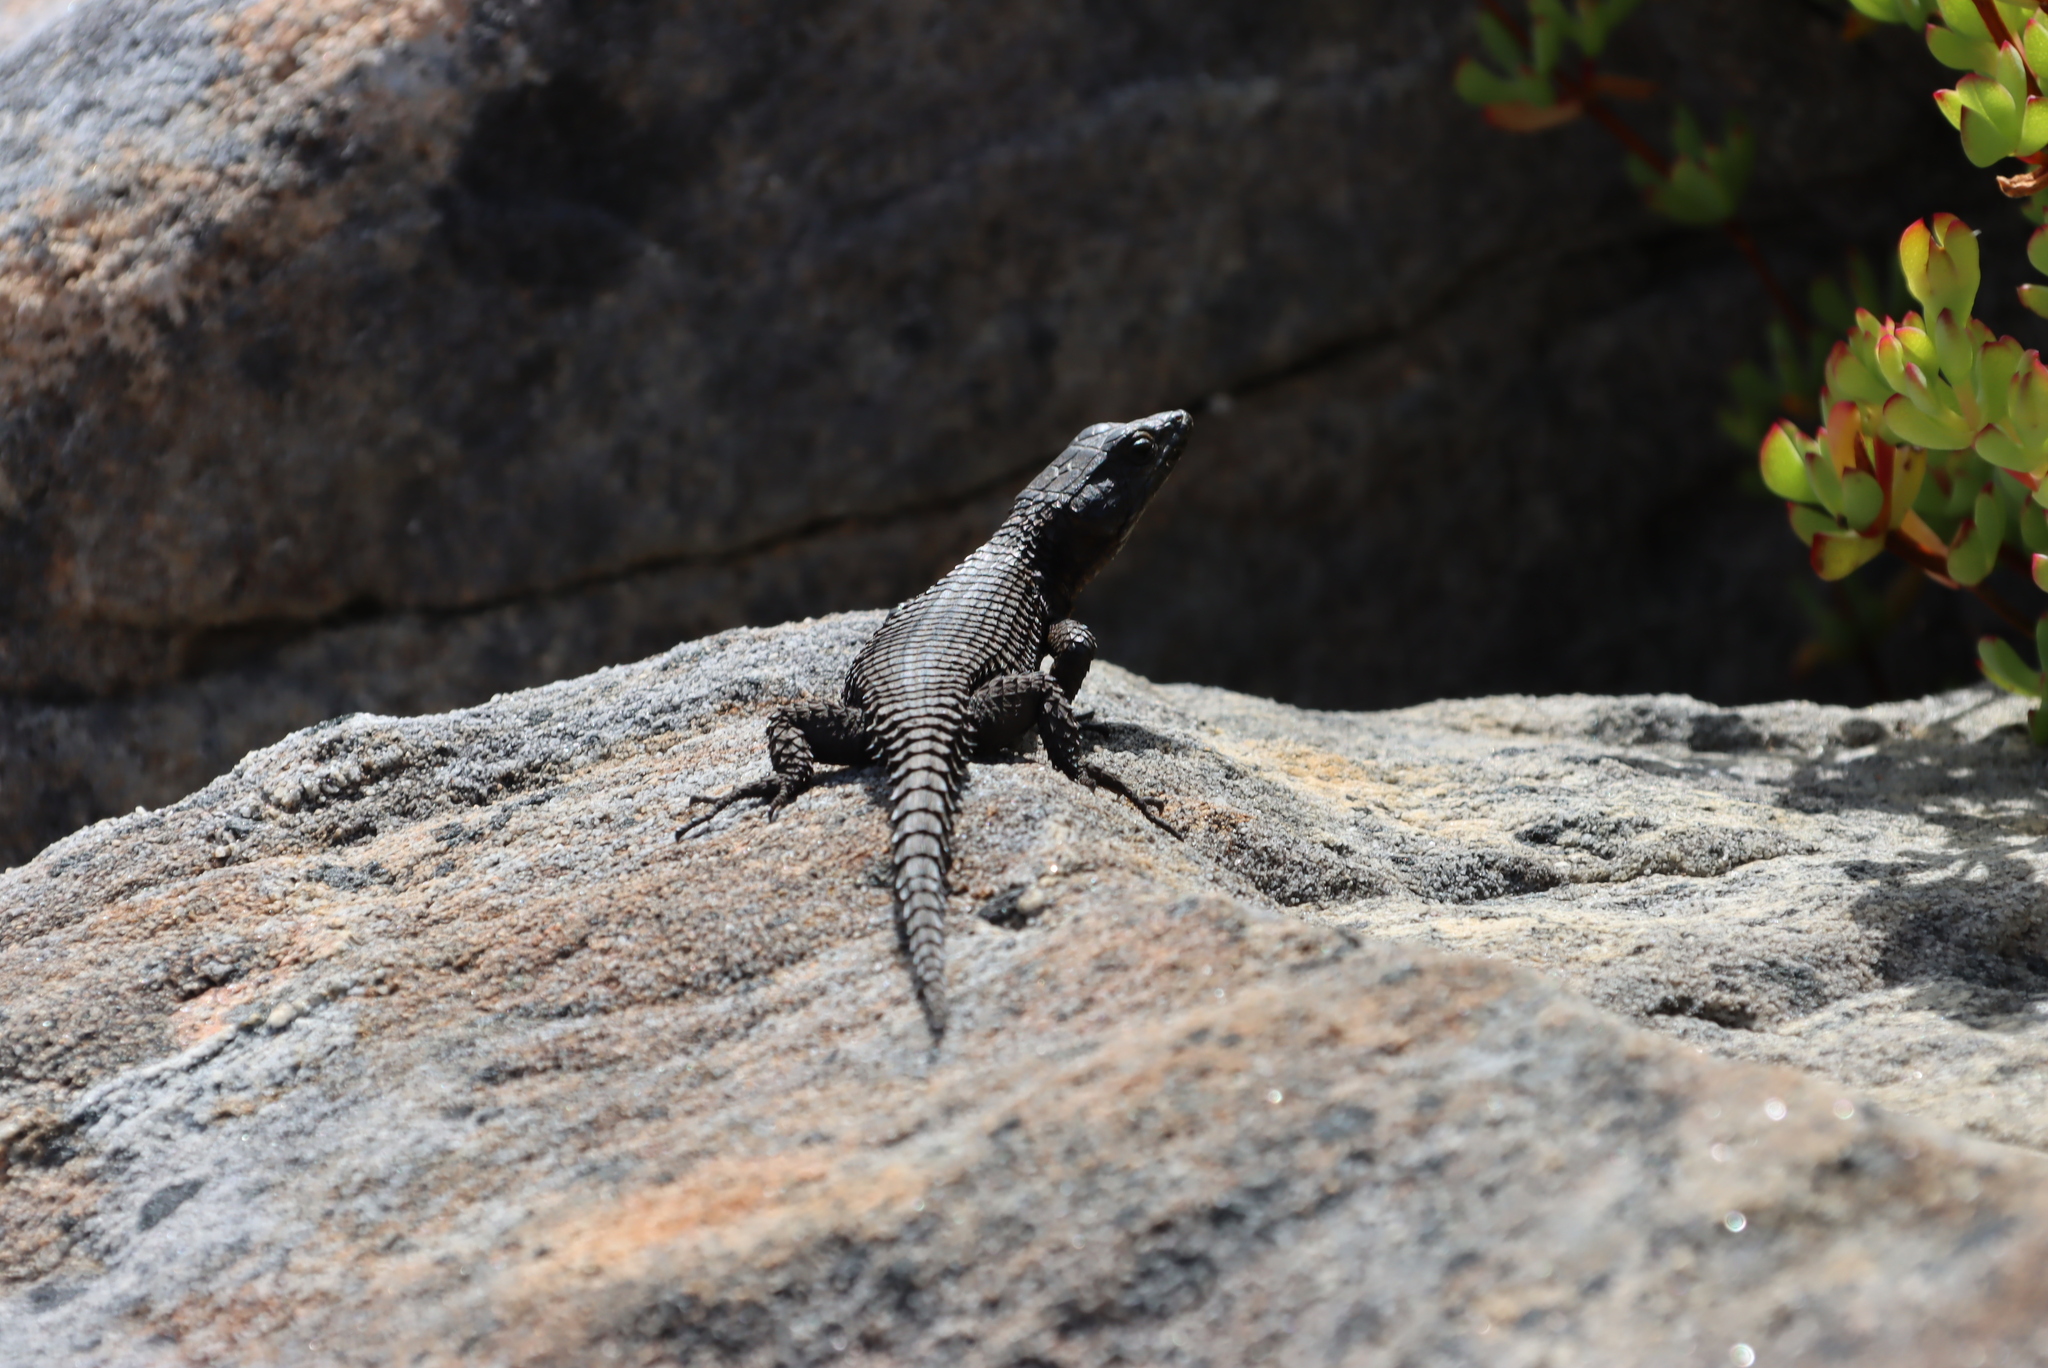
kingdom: Animalia
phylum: Chordata
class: Squamata
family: Cordylidae
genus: Cordylus
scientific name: Cordylus niger
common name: Black girdled lizard
